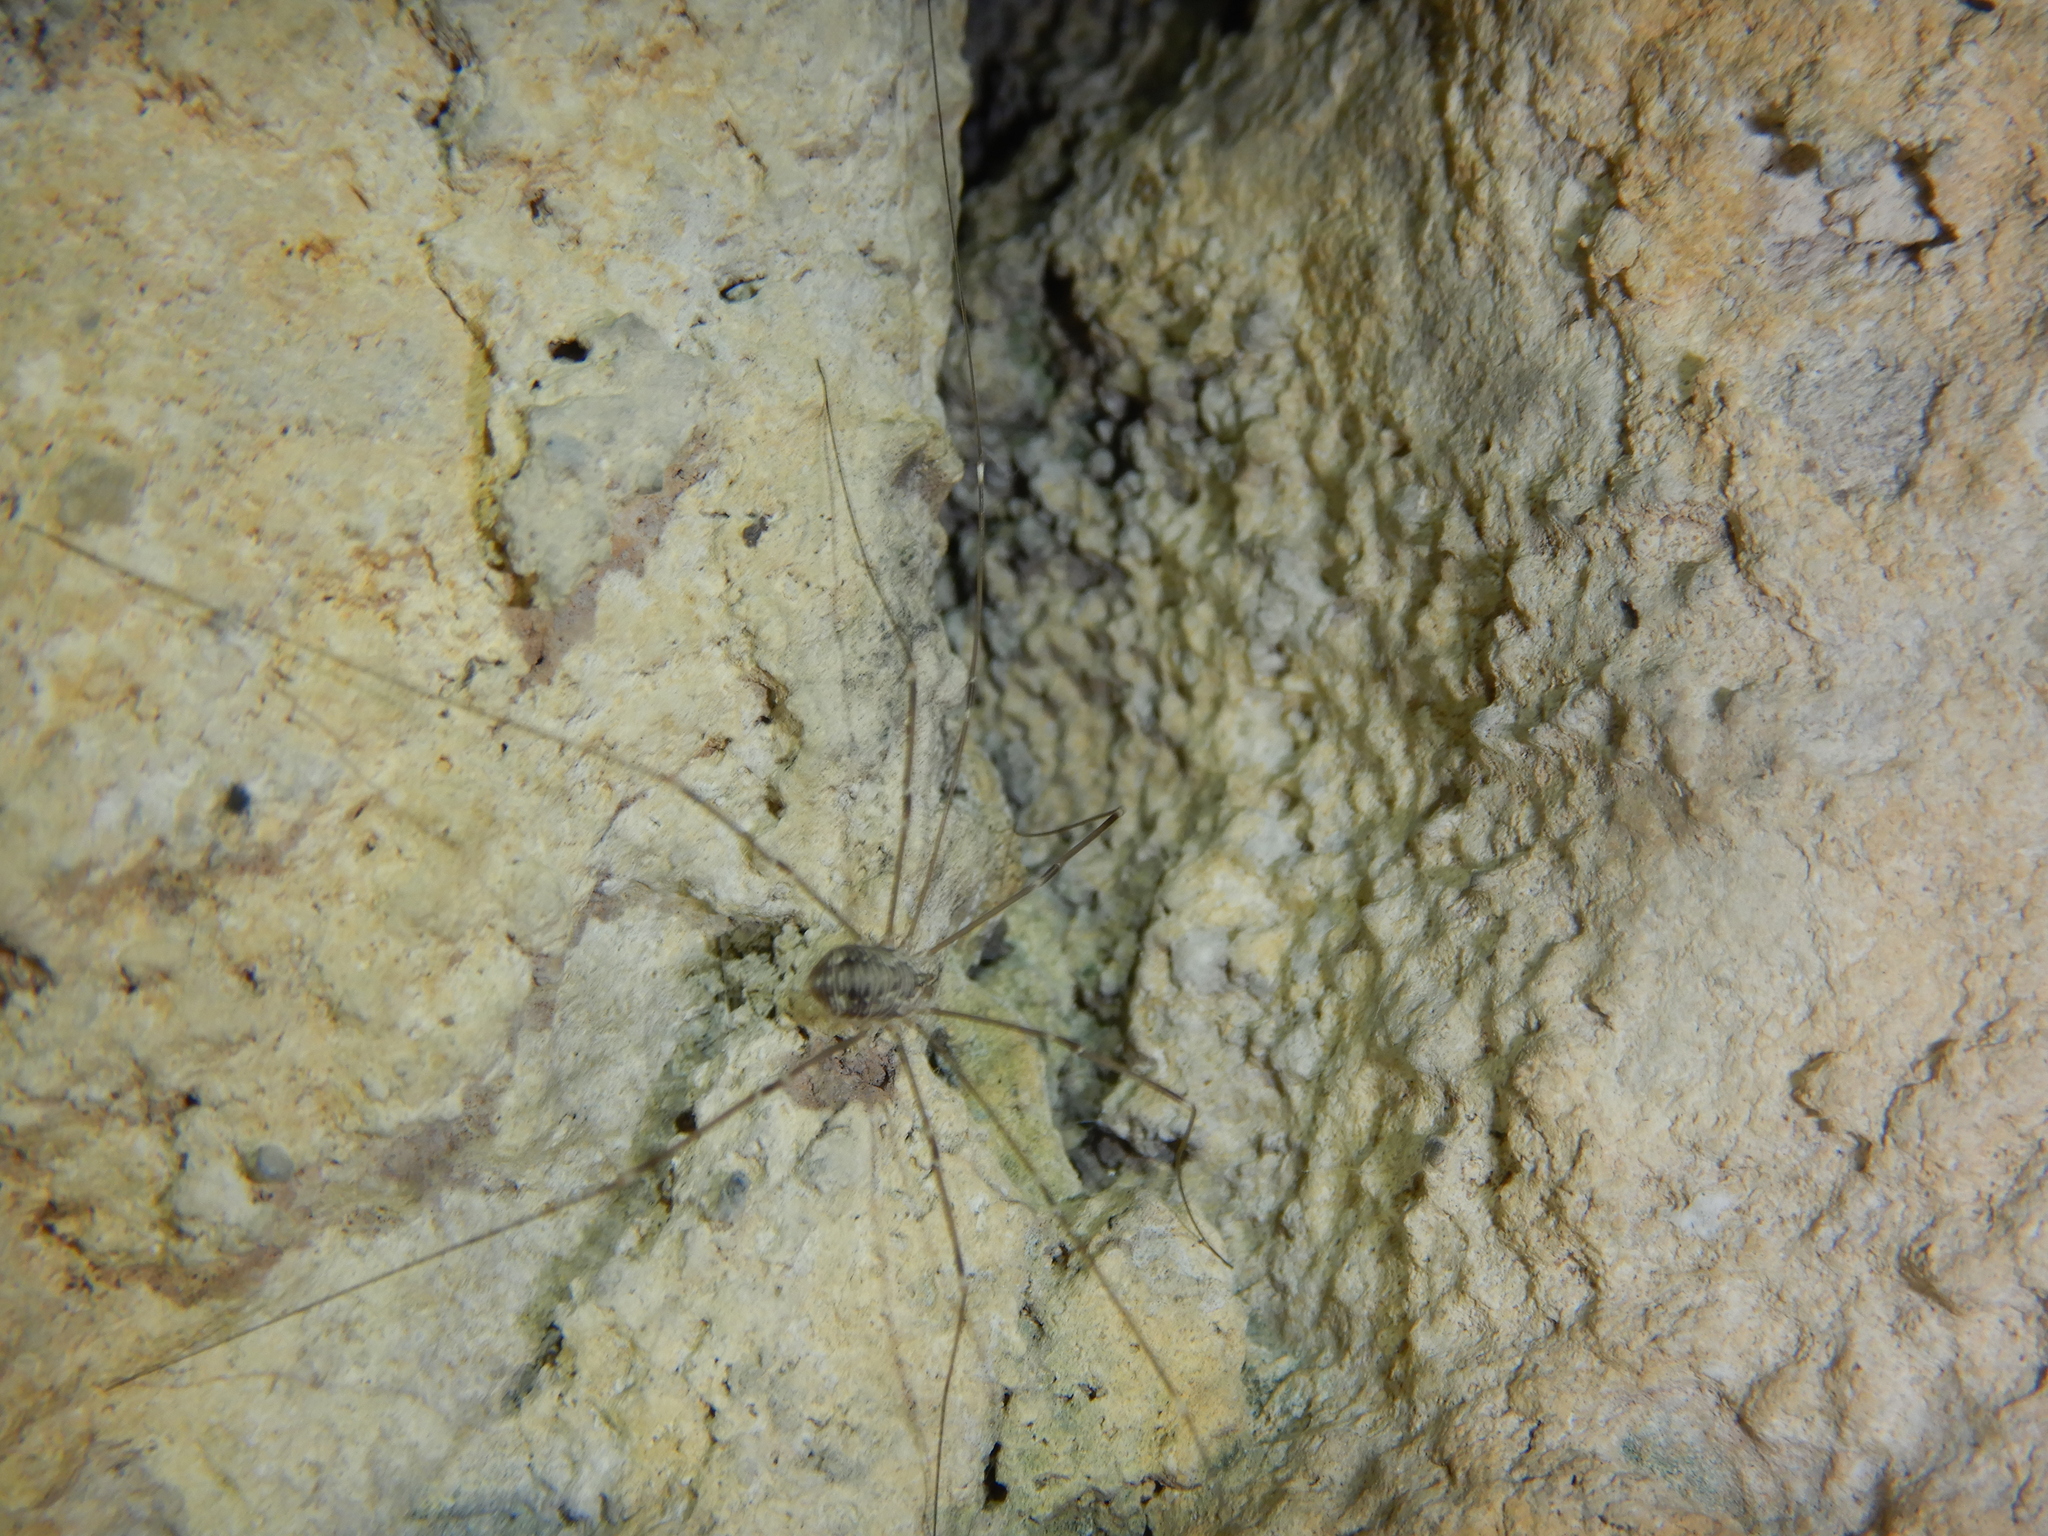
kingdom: Animalia
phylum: Arthropoda
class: Arachnida
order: Opiliones
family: Sclerosomatidae
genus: Leiobunum
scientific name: Leiobunum limbatum
